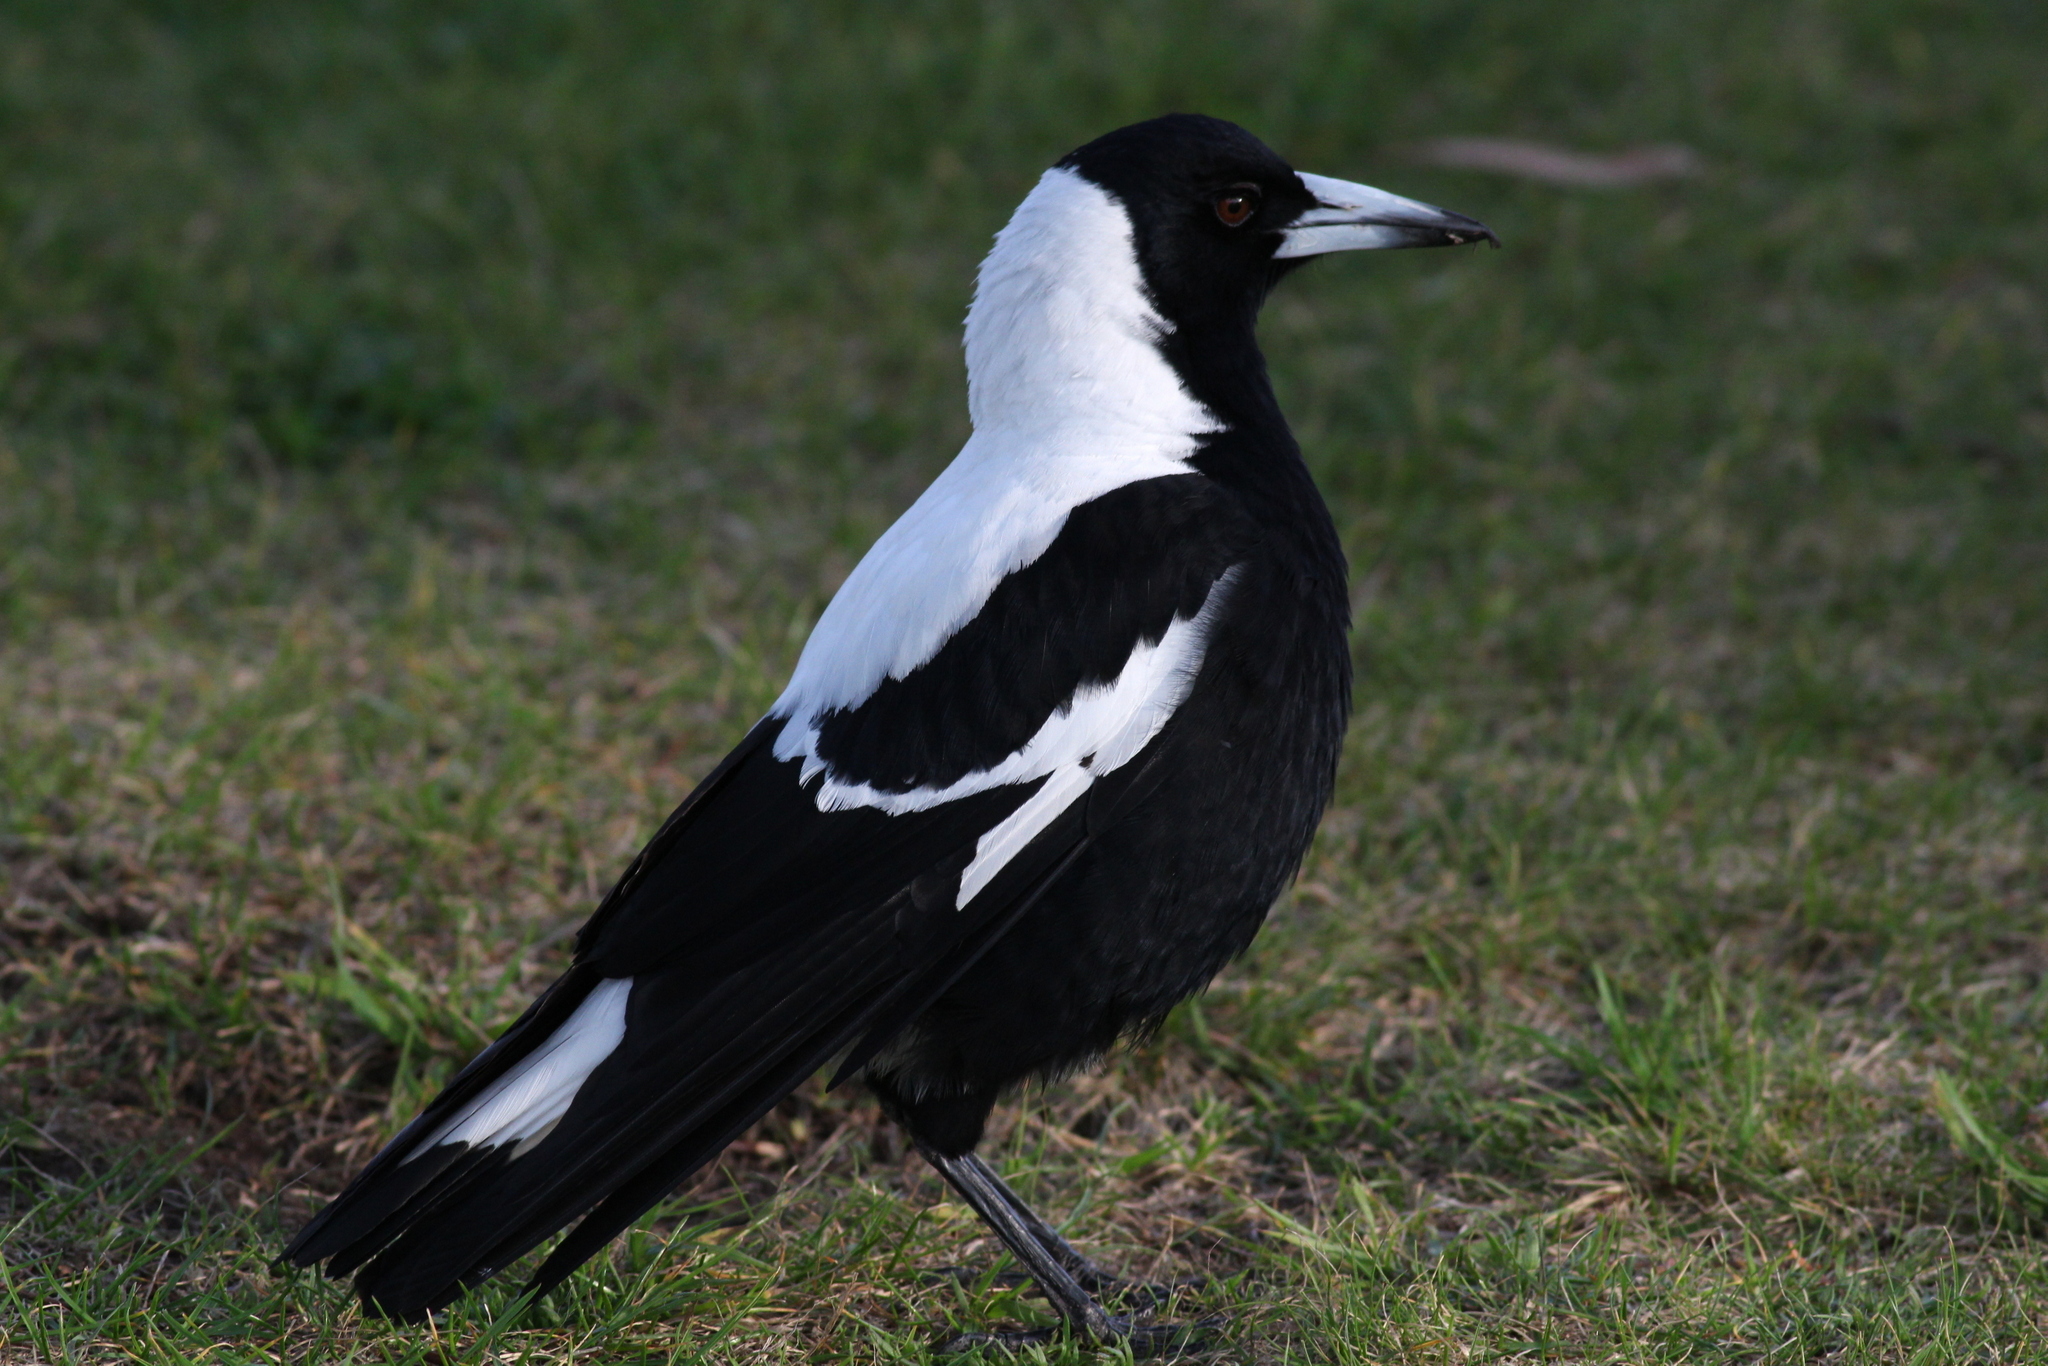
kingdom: Animalia
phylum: Chordata
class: Aves
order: Passeriformes
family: Cracticidae
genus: Gymnorhina
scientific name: Gymnorhina tibicen
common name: Australian magpie
